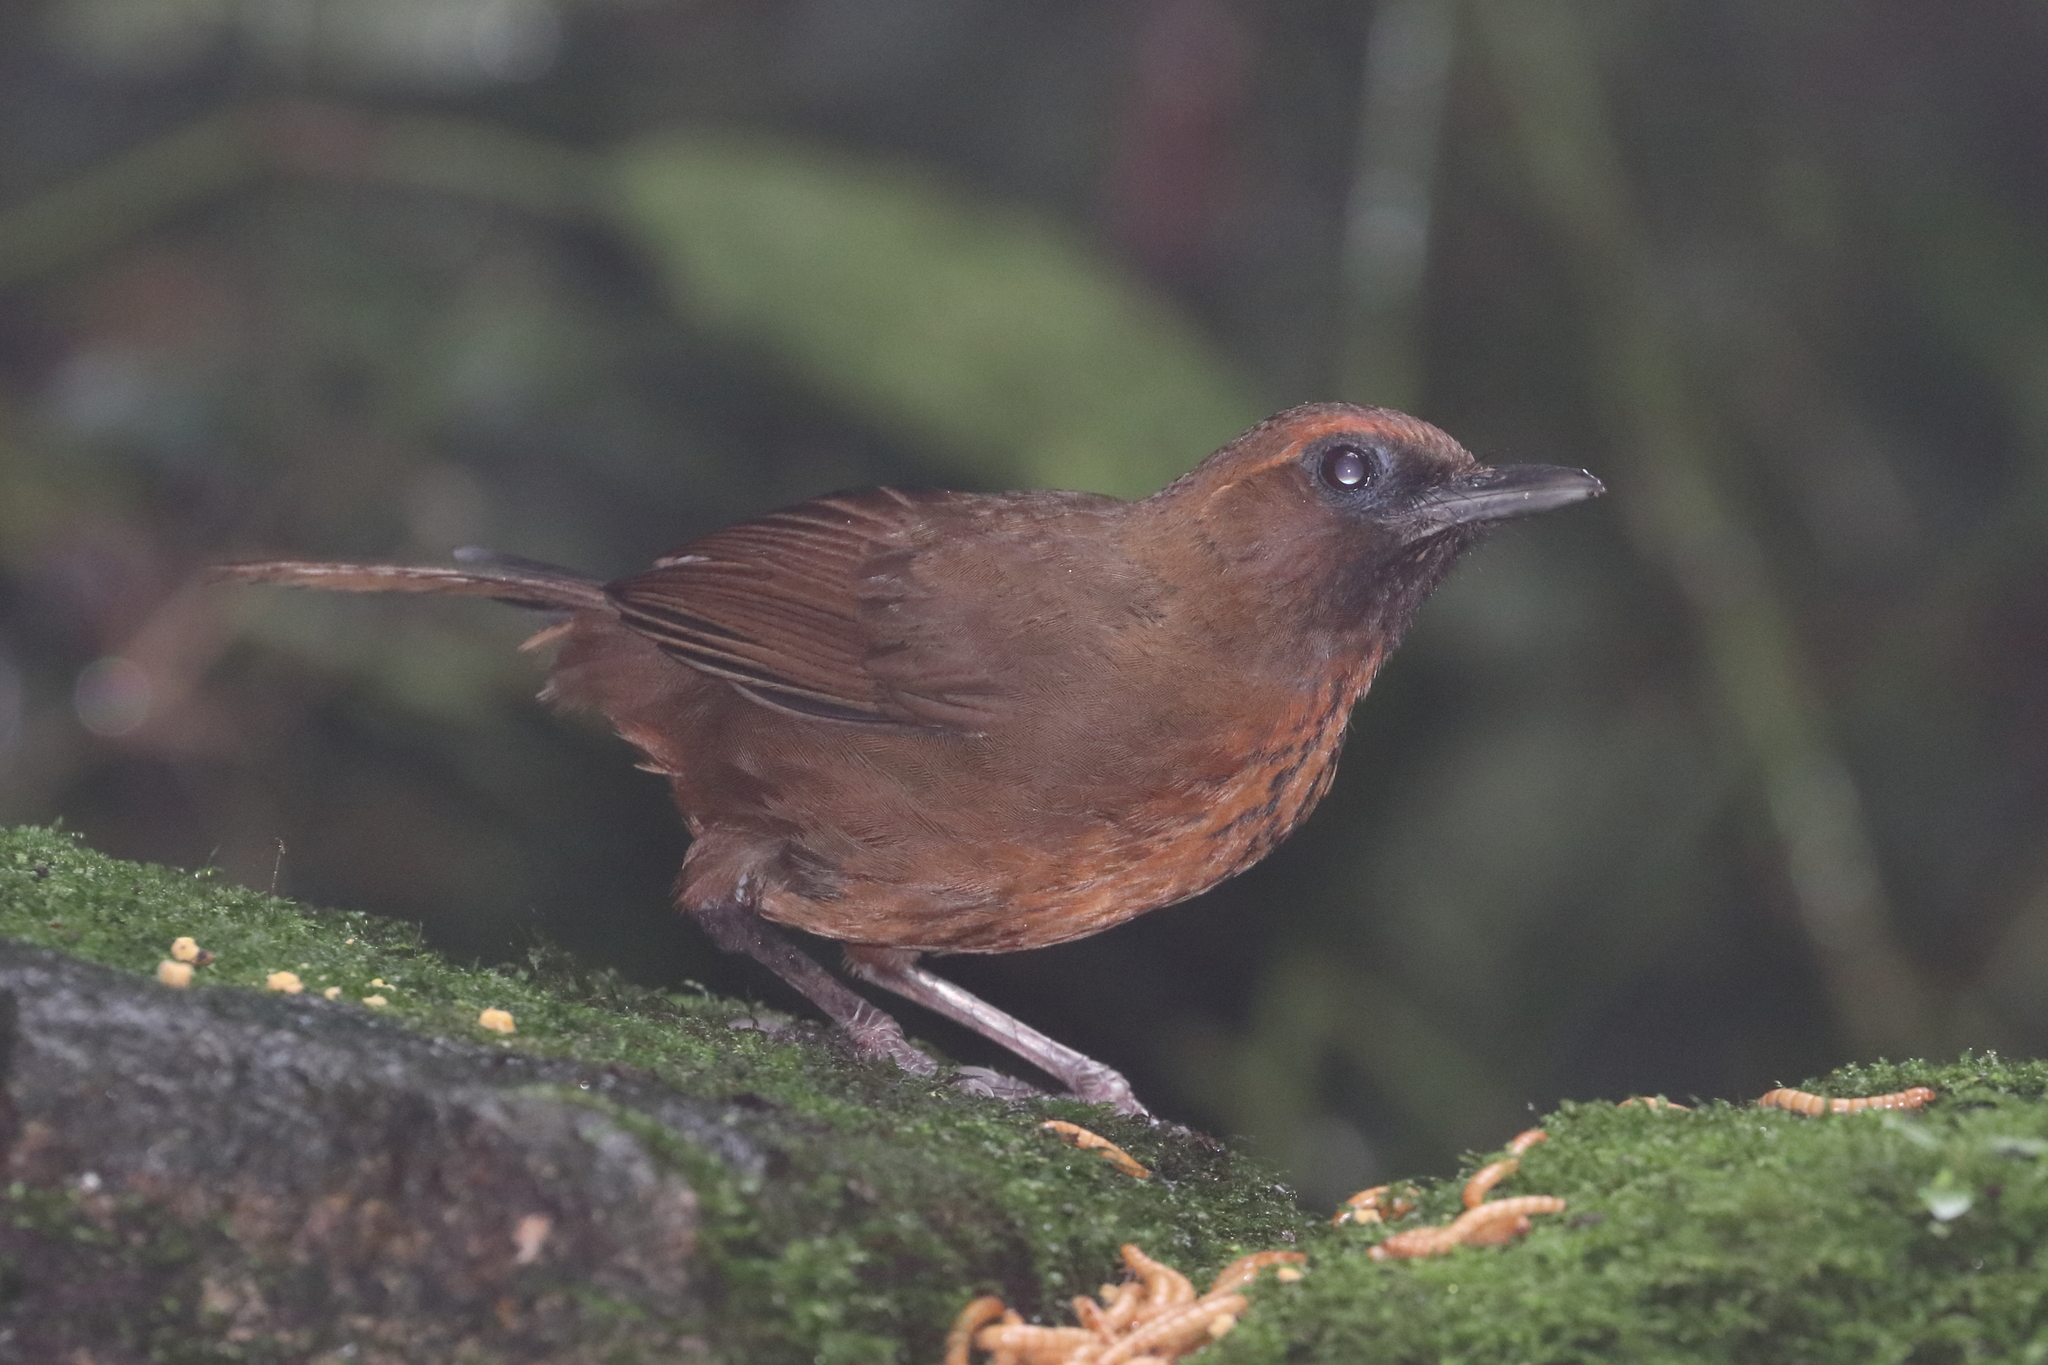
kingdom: Animalia
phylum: Chordata
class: Aves
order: Passeriformes
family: Leiothrichidae
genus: Garrulax
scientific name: Garrulax annamensis
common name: Orange-breasted laughingthrush
